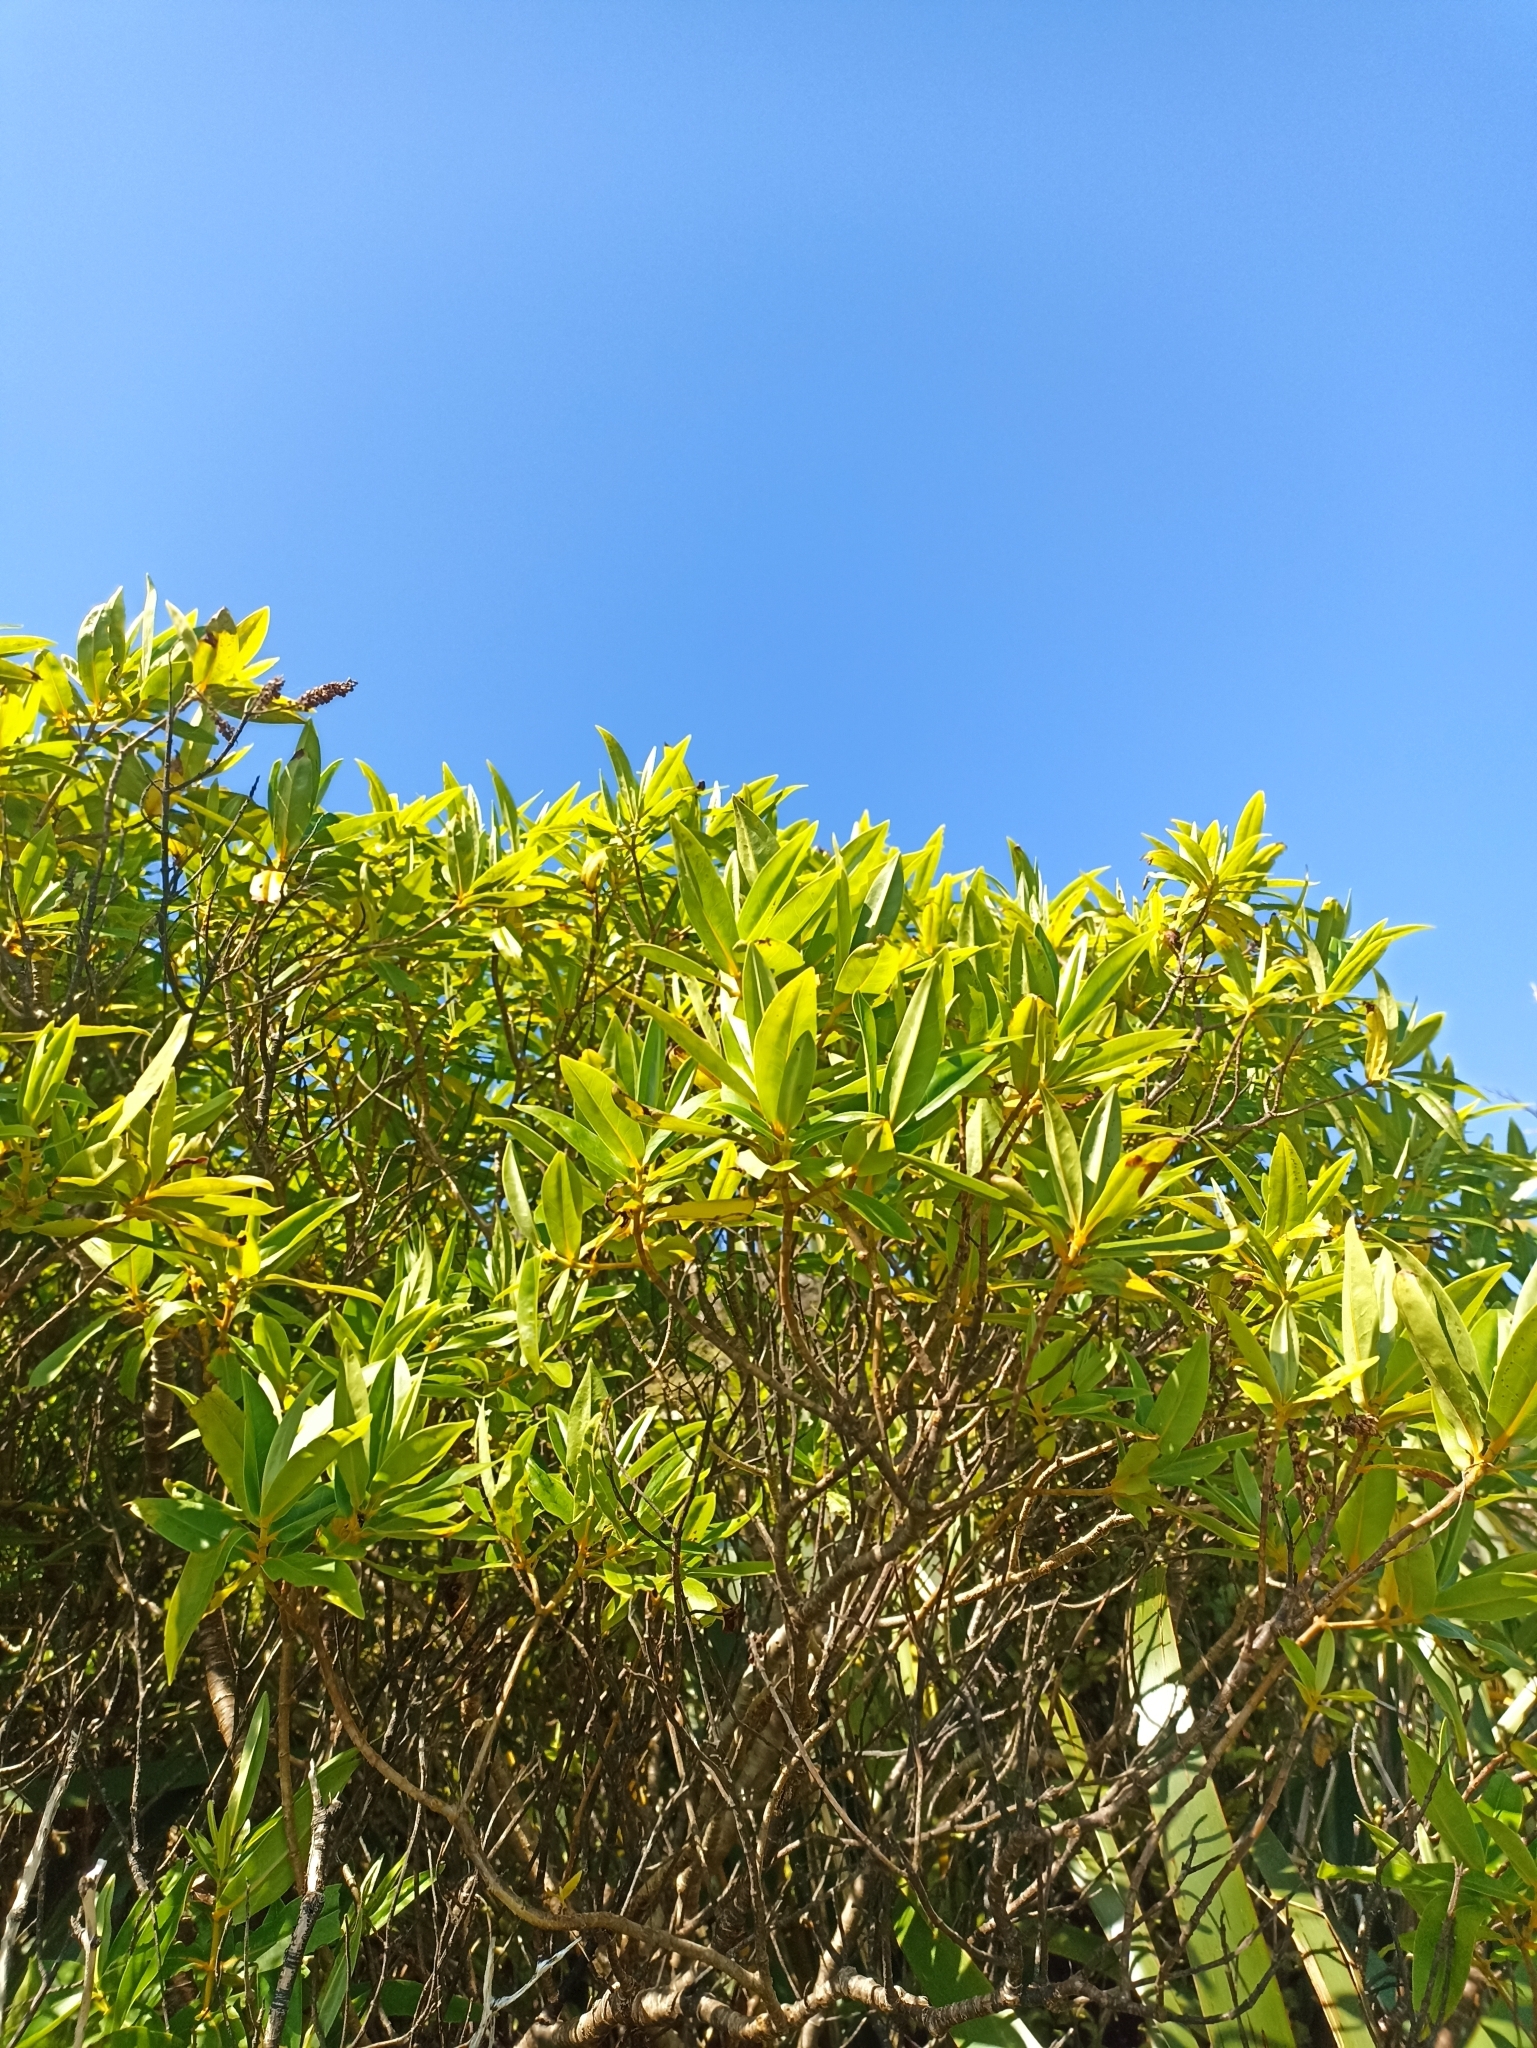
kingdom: Plantae
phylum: Tracheophyta
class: Magnoliopsida
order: Lamiales
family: Plantaginaceae
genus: Veronica
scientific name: Veronica flavida
